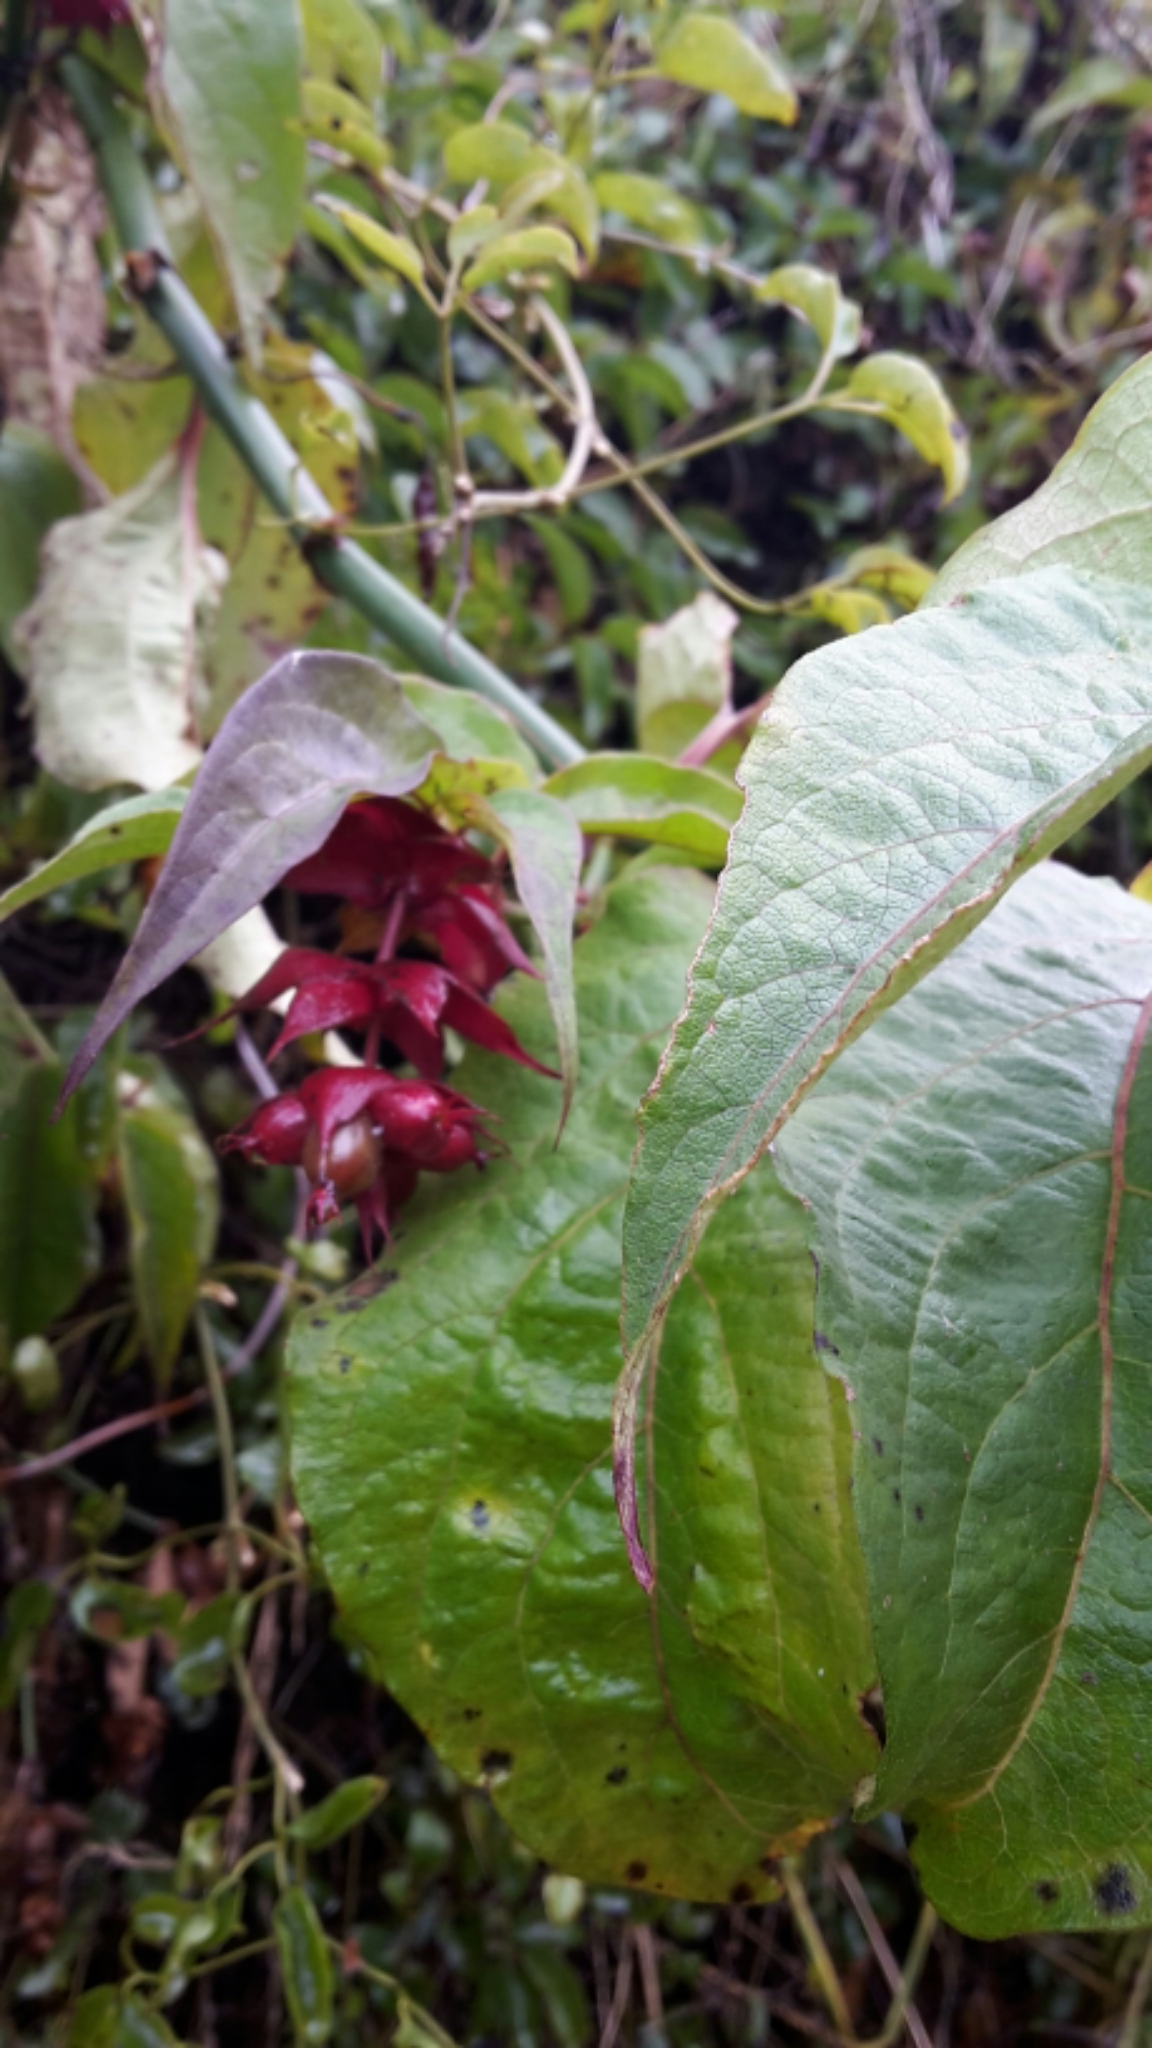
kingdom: Plantae
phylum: Tracheophyta
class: Magnoliopsida
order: Dipsacales
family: Caprifoliaceae
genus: Leycesteria
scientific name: Leycesteria formosa
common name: Himalayan honeysuckle
